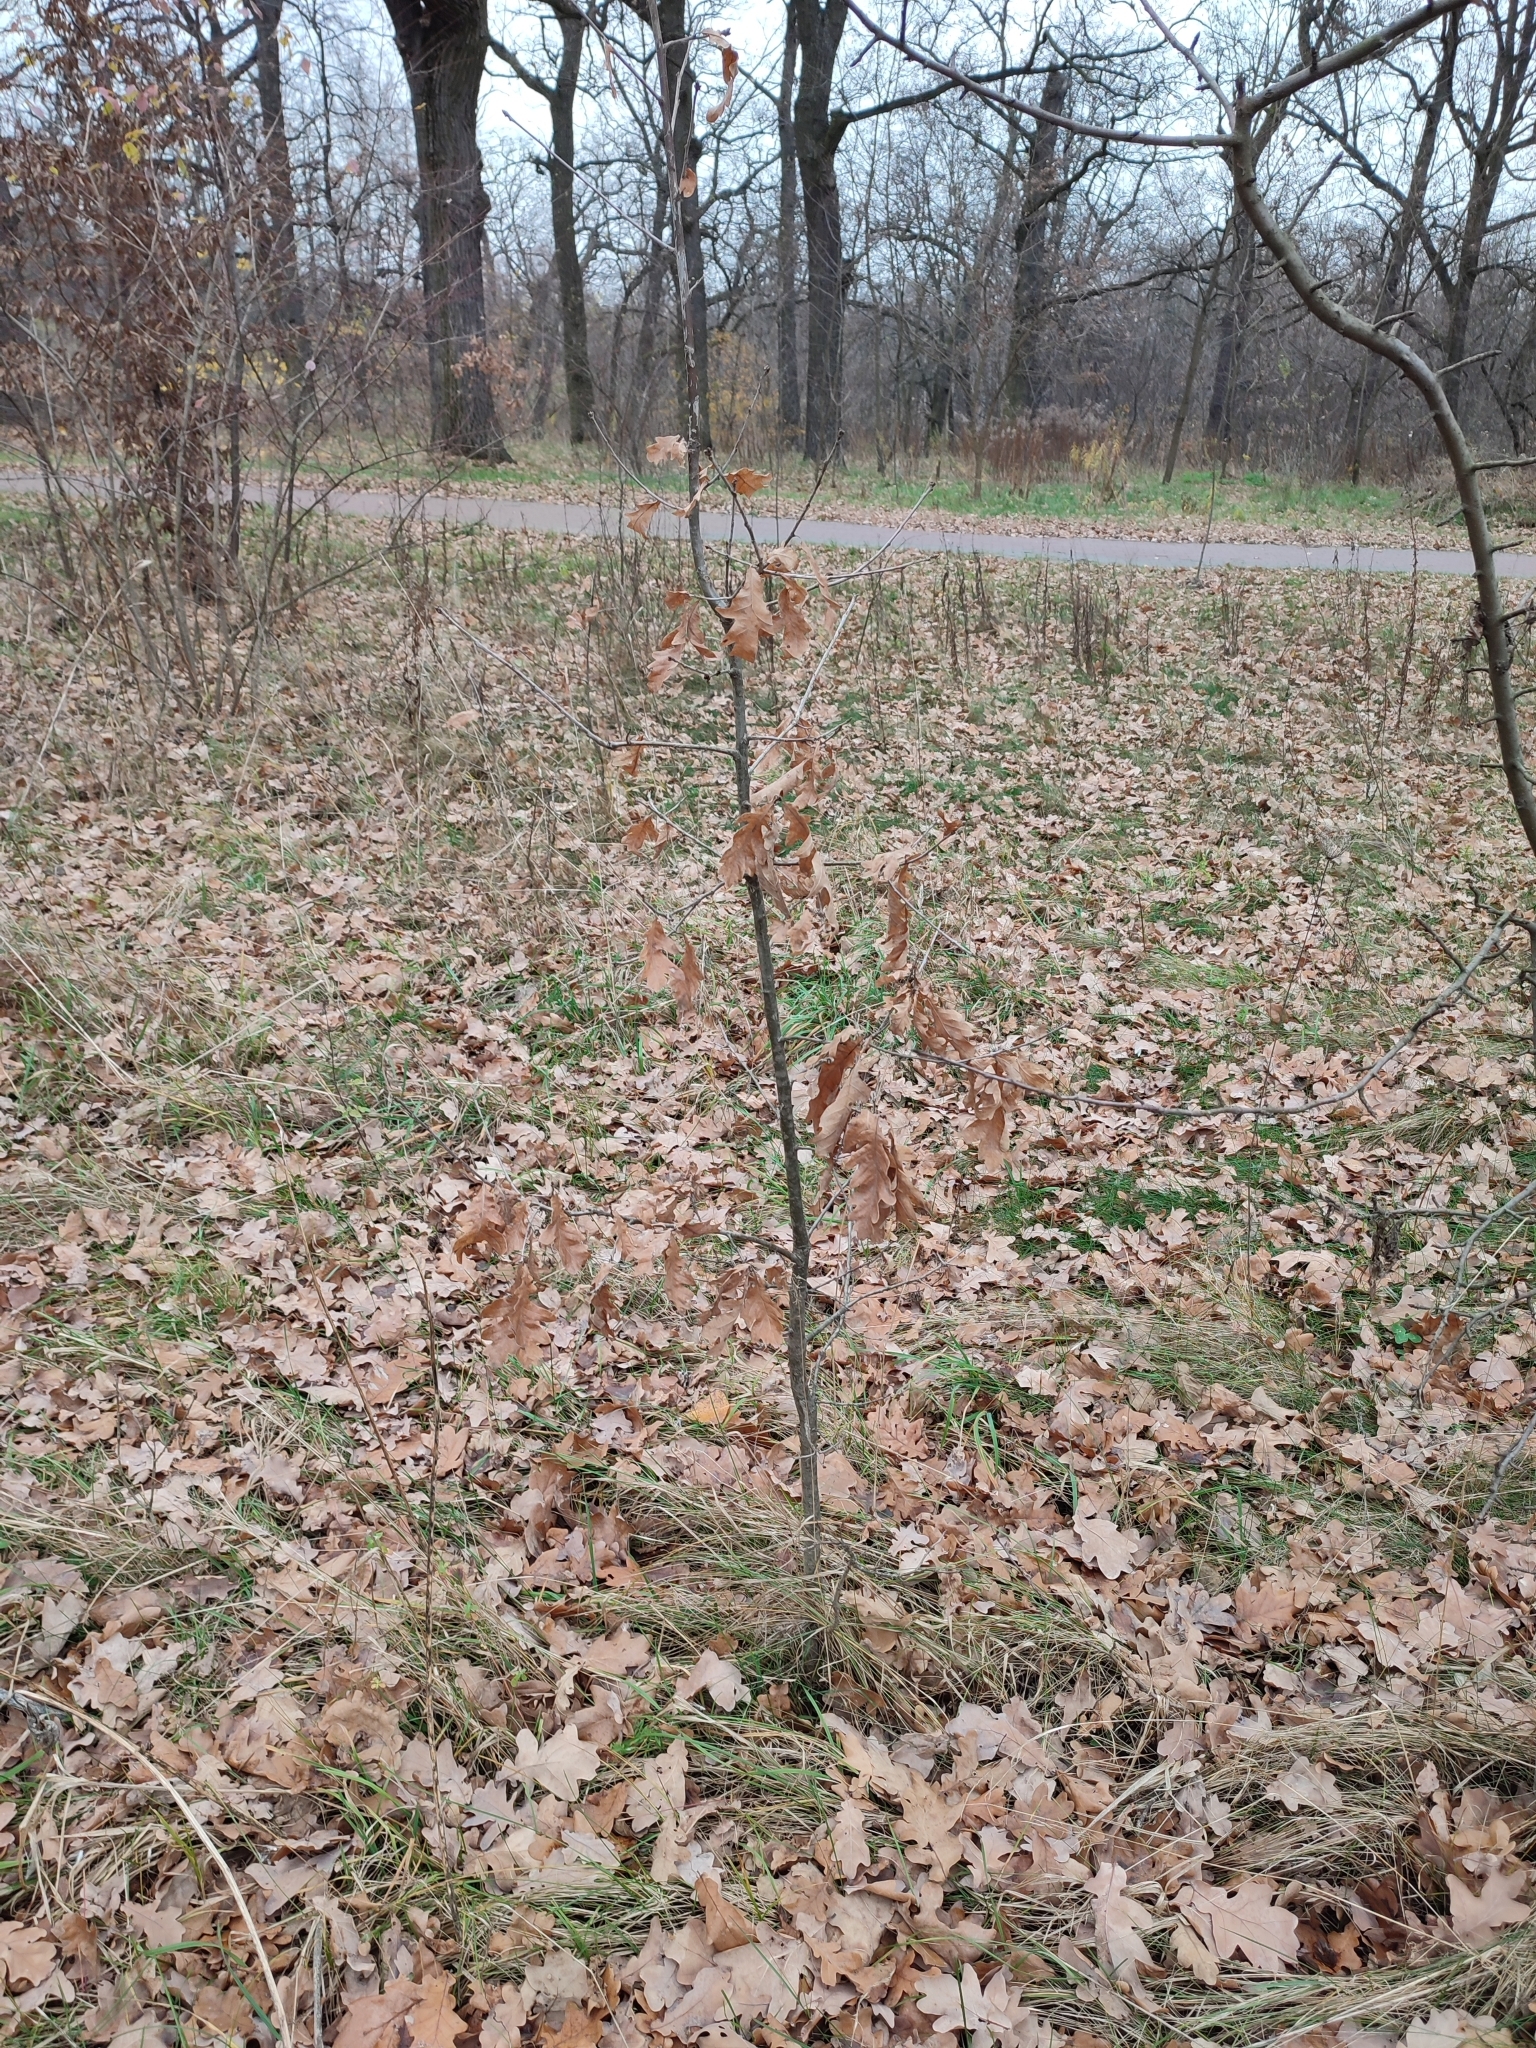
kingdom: Plantae
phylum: Tracheophyta
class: Magnoliopsida
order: Fagales
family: Fagaceae
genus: Quercus
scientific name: Quercus robur
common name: Pedunculate oak
